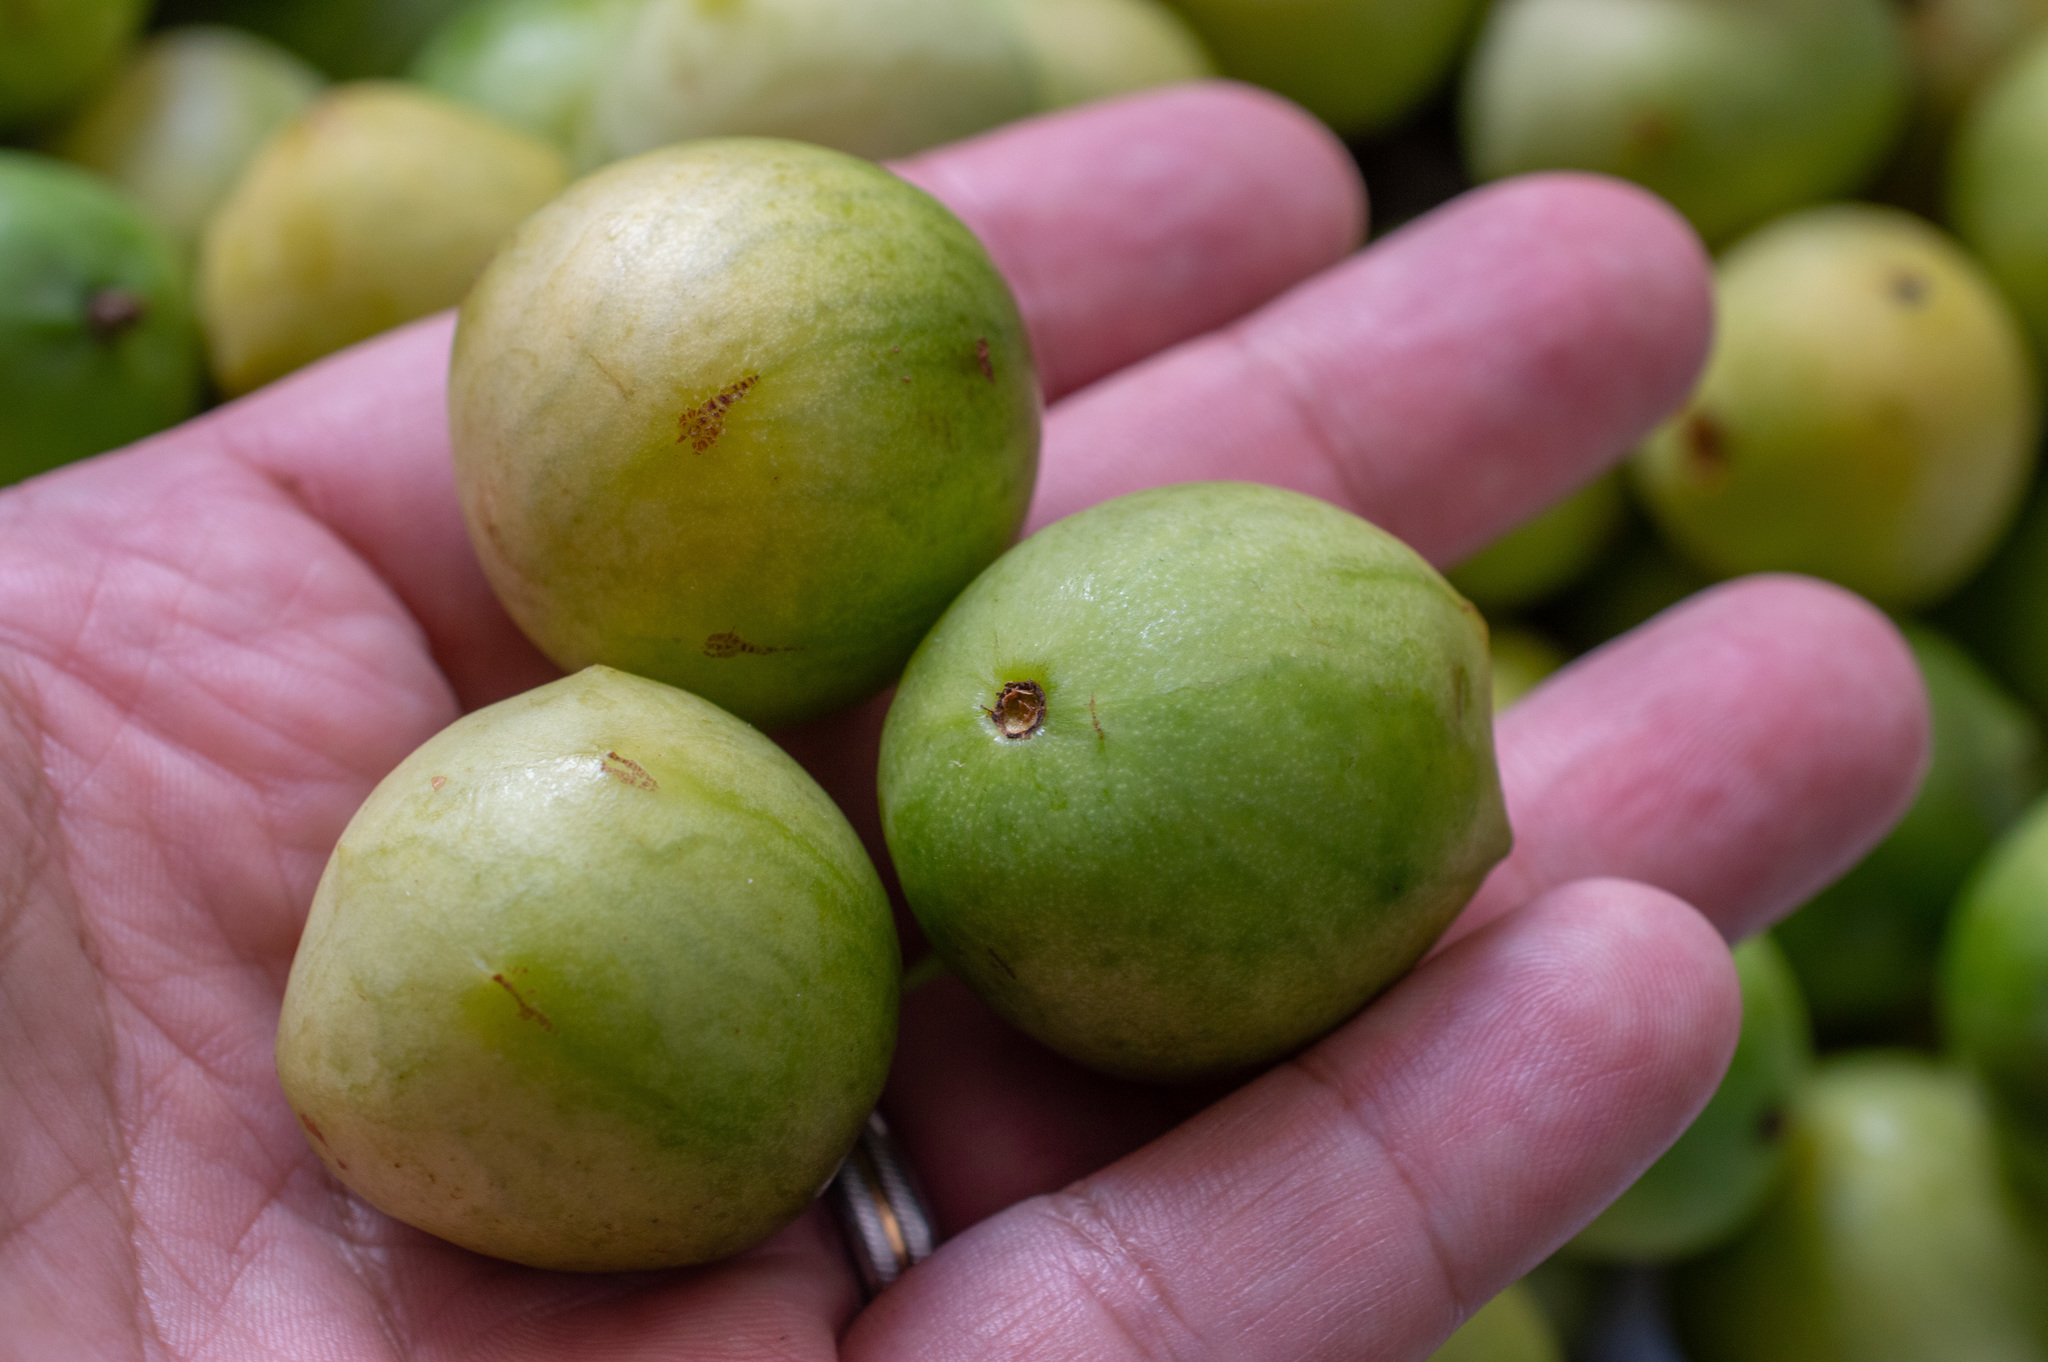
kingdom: Plantae
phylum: Tracheophyta
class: Magnoliopsida
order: Sapindales
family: Anacardiaceae
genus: Spondias
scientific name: Spondias tuberosa
